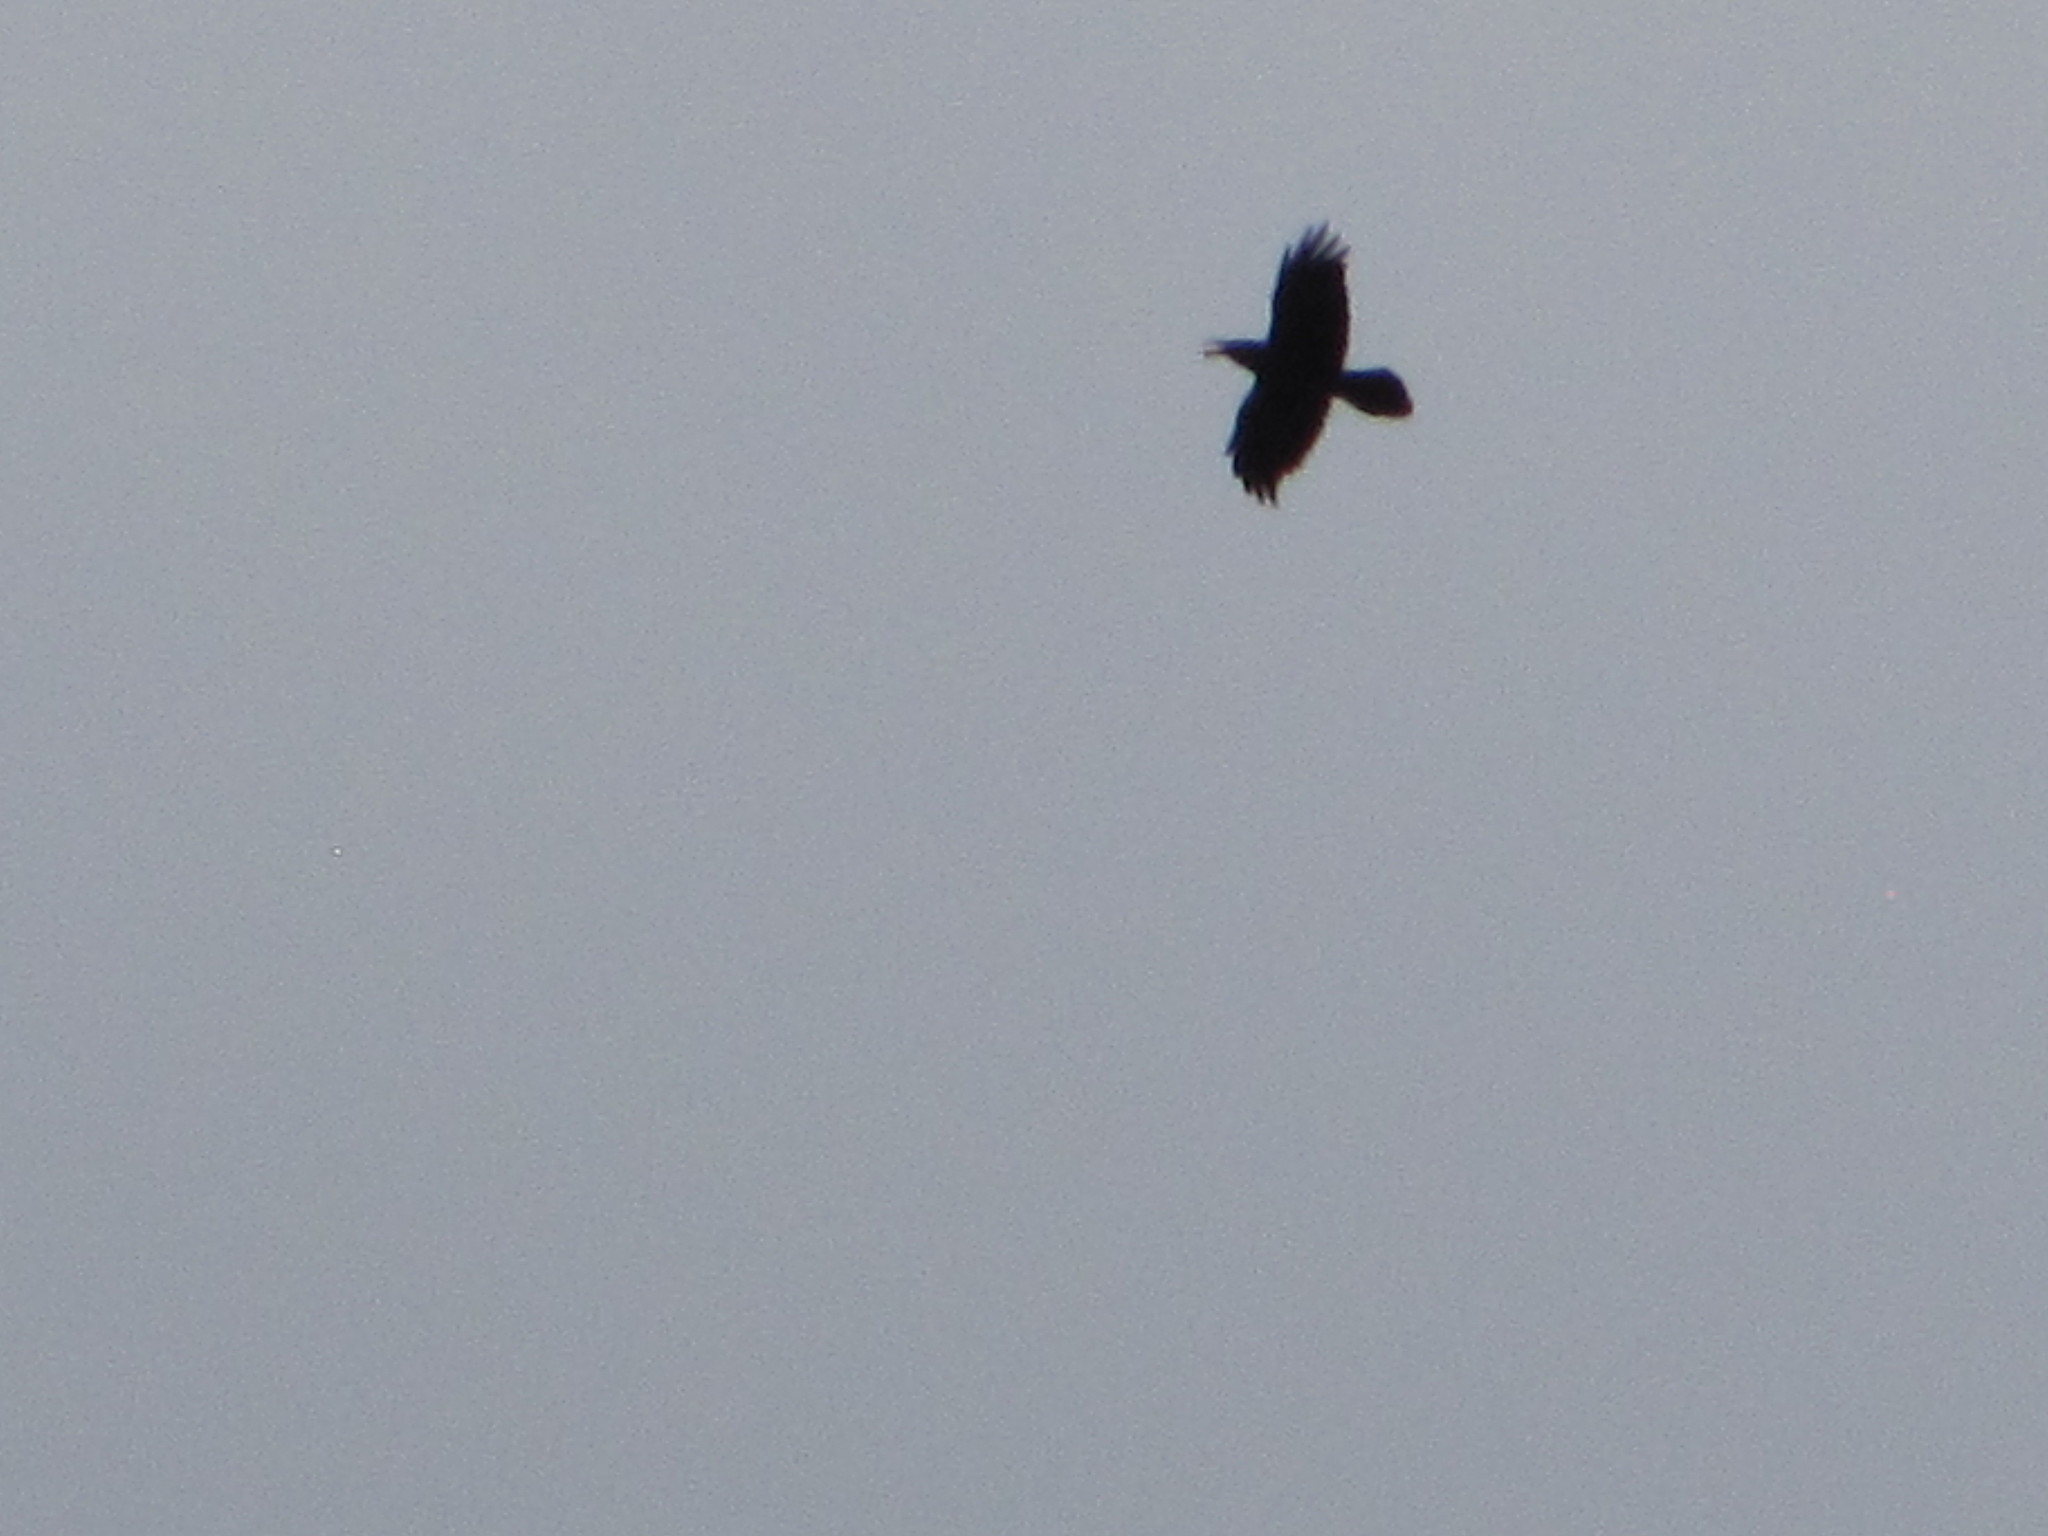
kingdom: Animalia
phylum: Chordata
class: Aves
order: Passeriformes
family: Corvidae
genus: Corvus
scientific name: Corvus corax
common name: Common raven
